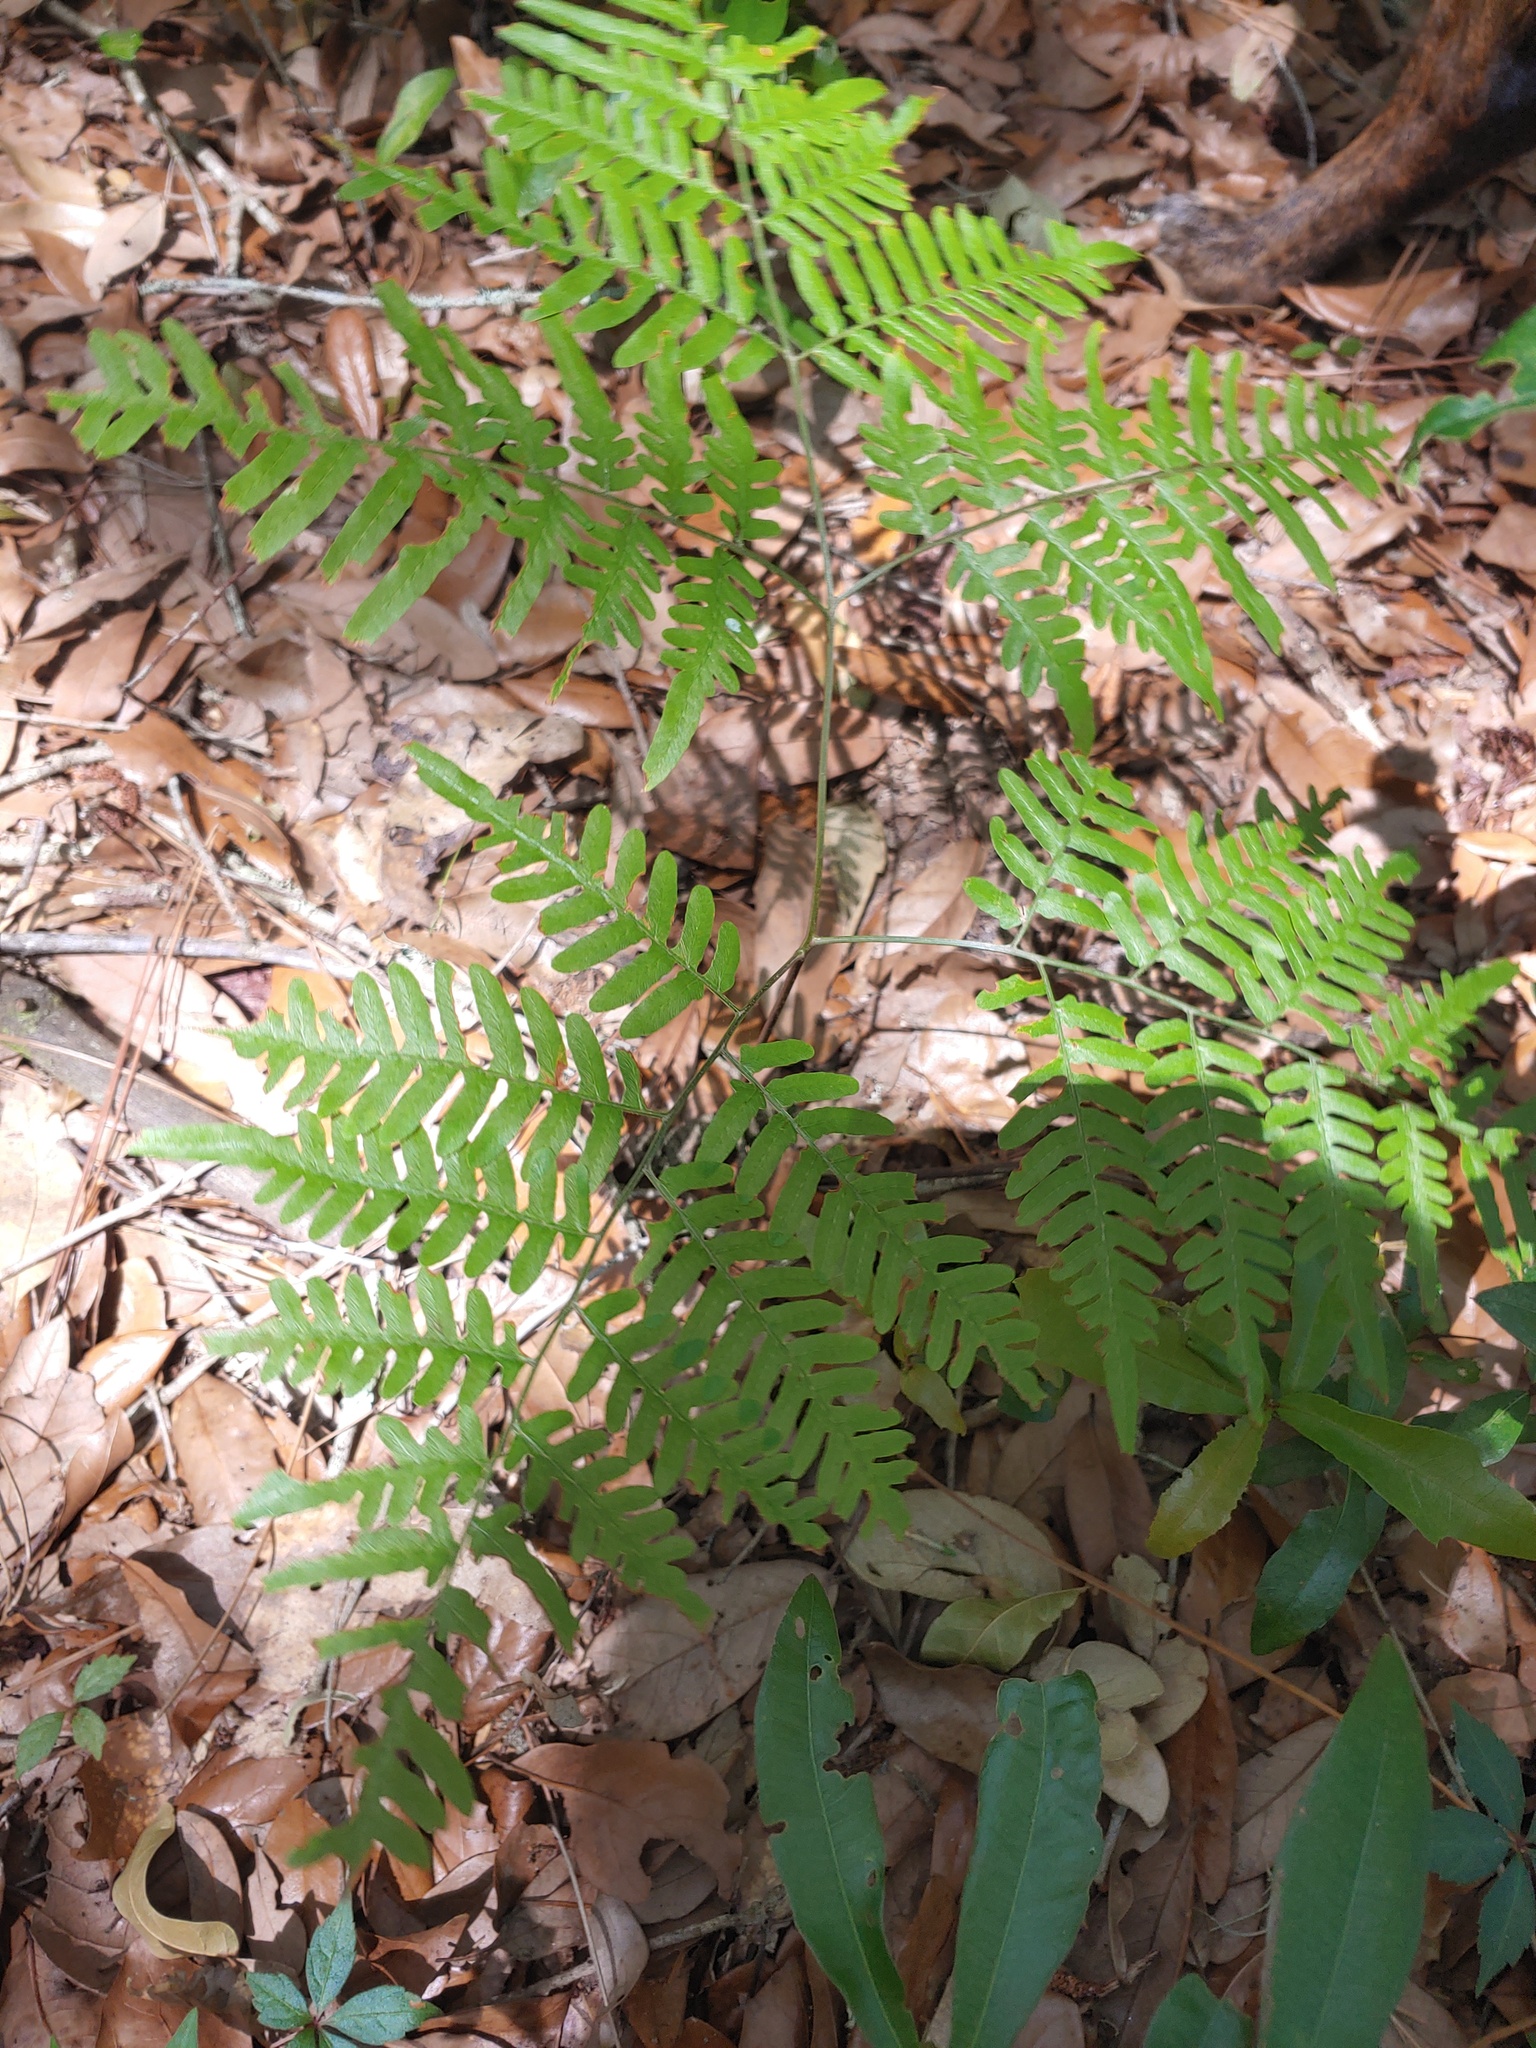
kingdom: Plantae
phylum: Tracheophyta
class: Polypodiopsida
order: Polypodiales
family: Dennstaedtiaceae
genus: Pteridium
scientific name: Pteridium aquilinum
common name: Bracken
